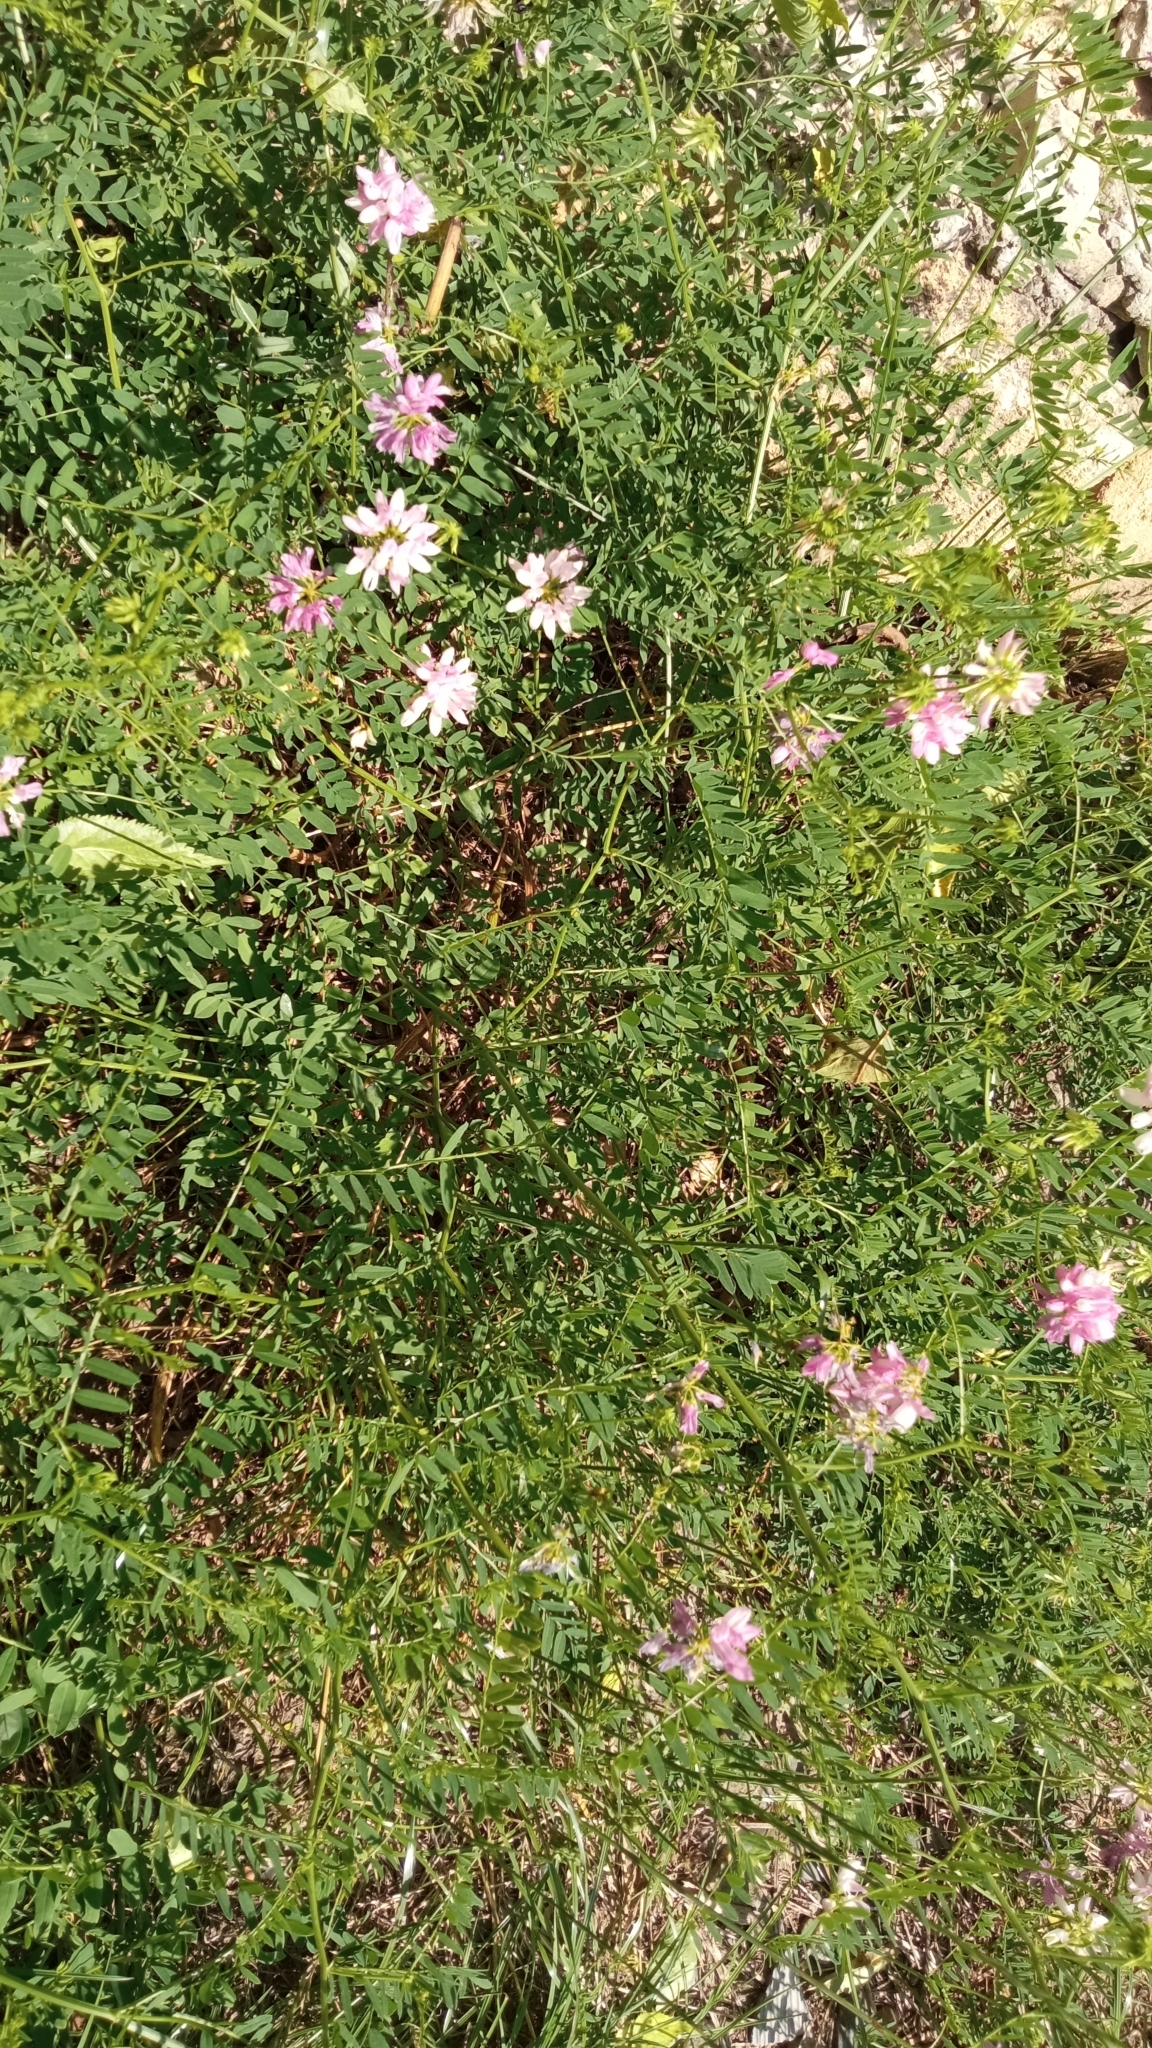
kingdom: Plantae
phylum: Tracheophyta
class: Magnoliopsida
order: Fabales
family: Fabaceae
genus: Coronilla
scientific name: Coronilla varia
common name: Crownvetch
